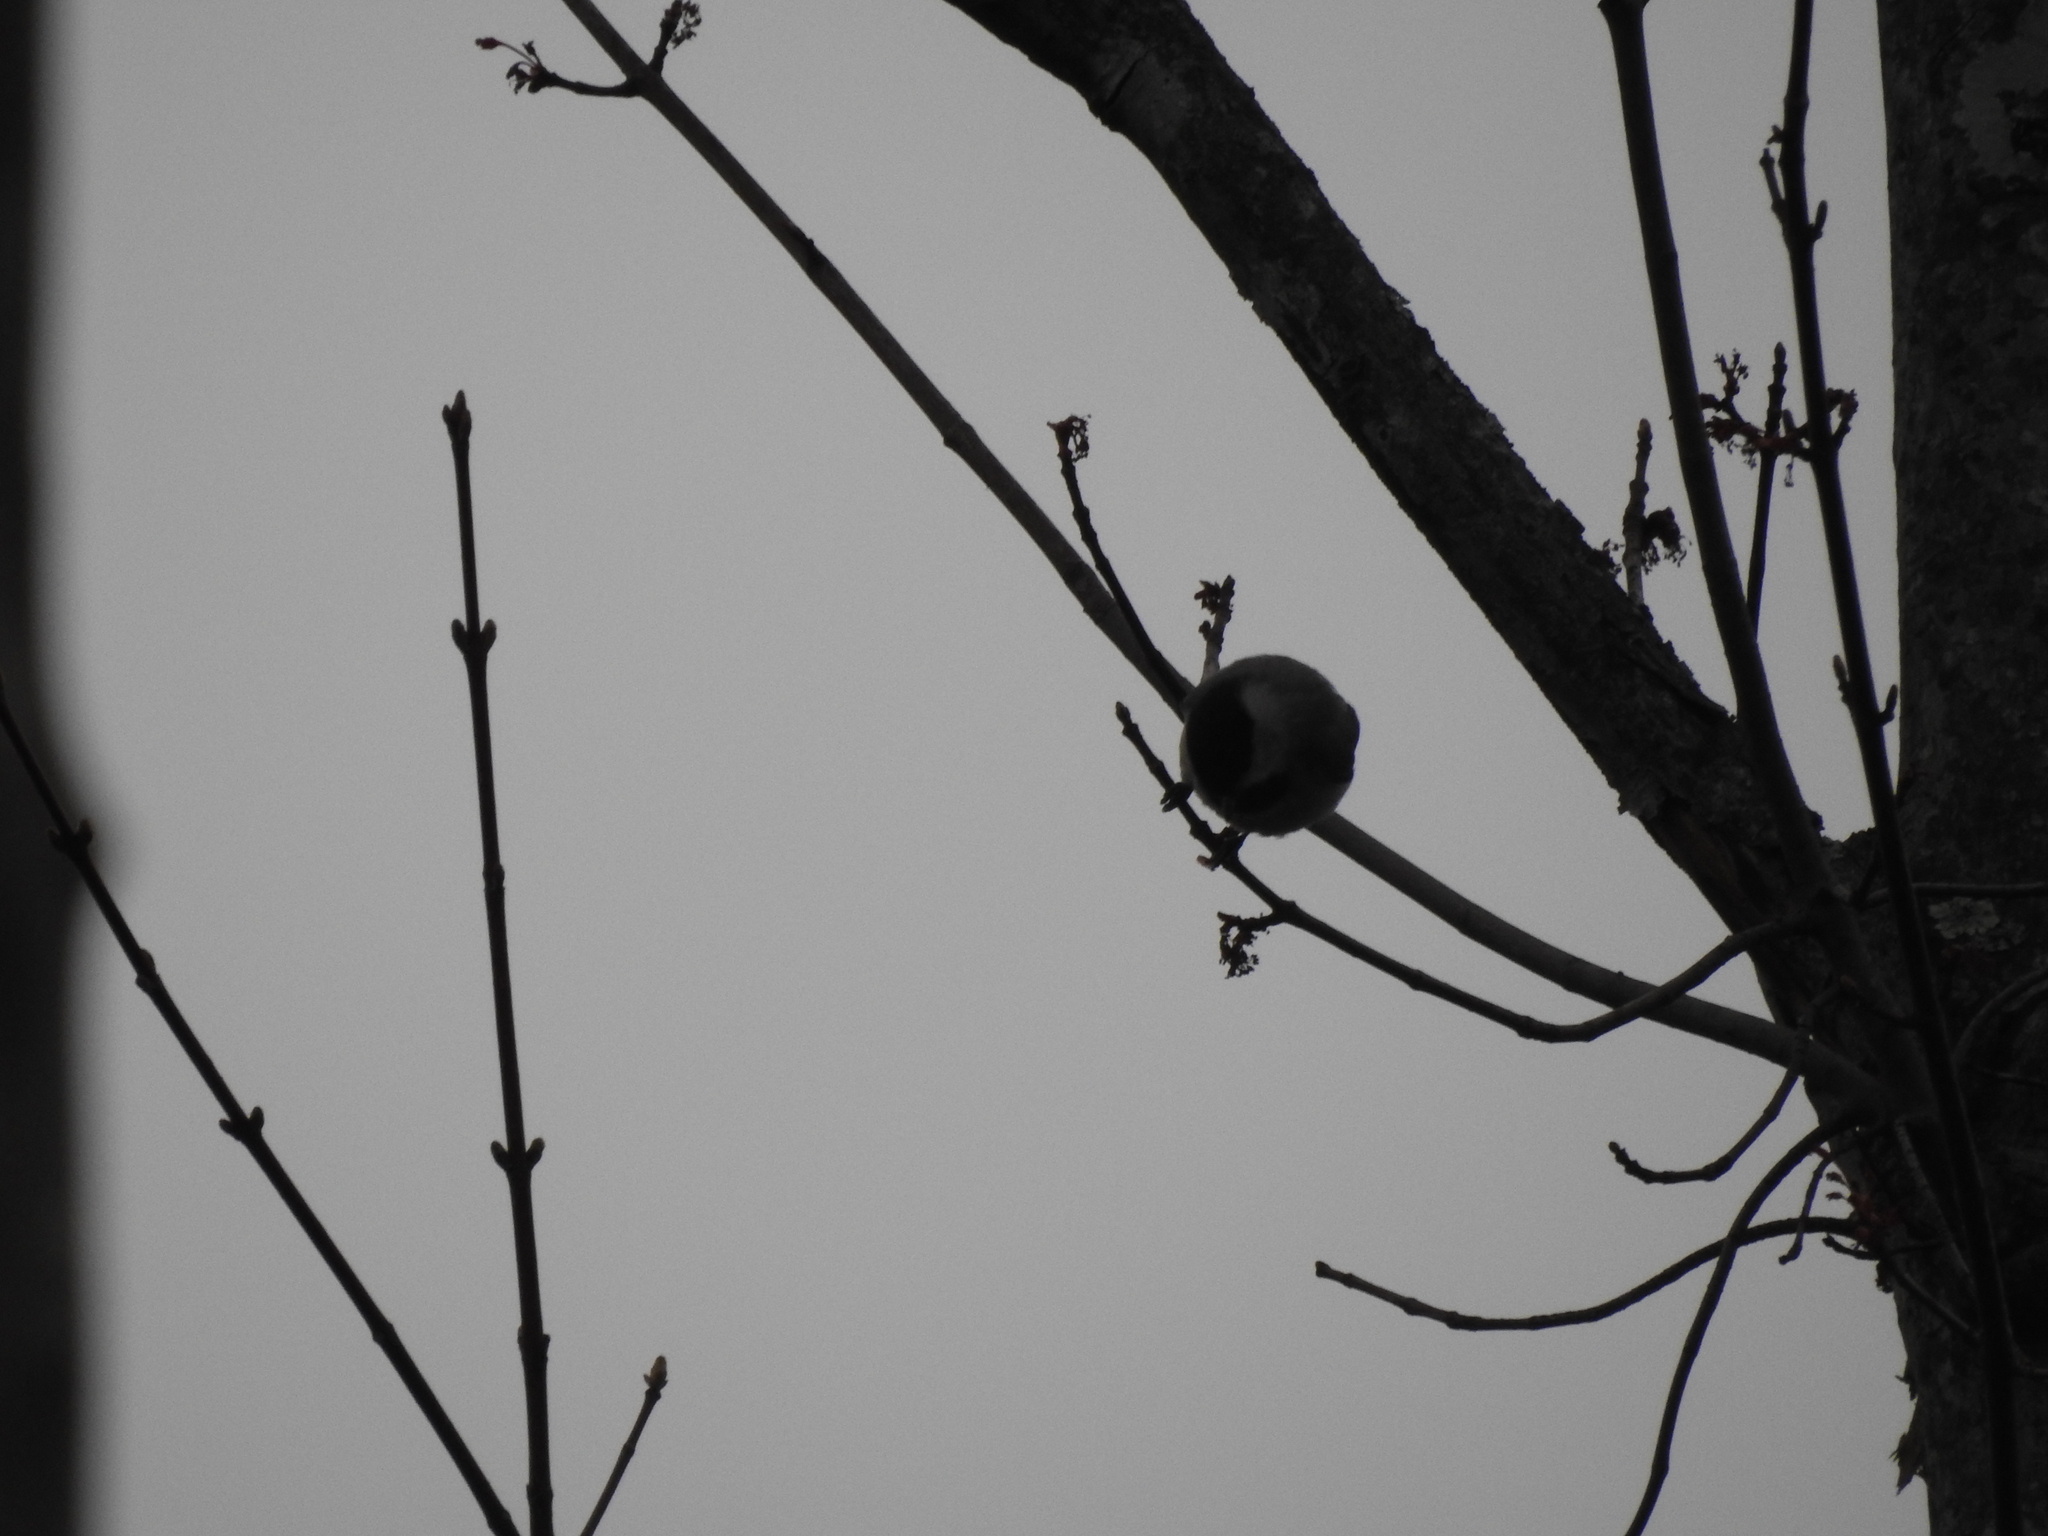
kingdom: Animalia
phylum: Chordata
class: Aves
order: Passeriformes
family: Paridae
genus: Poecile
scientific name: Poecile carolinensis
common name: Carolina chickadee
